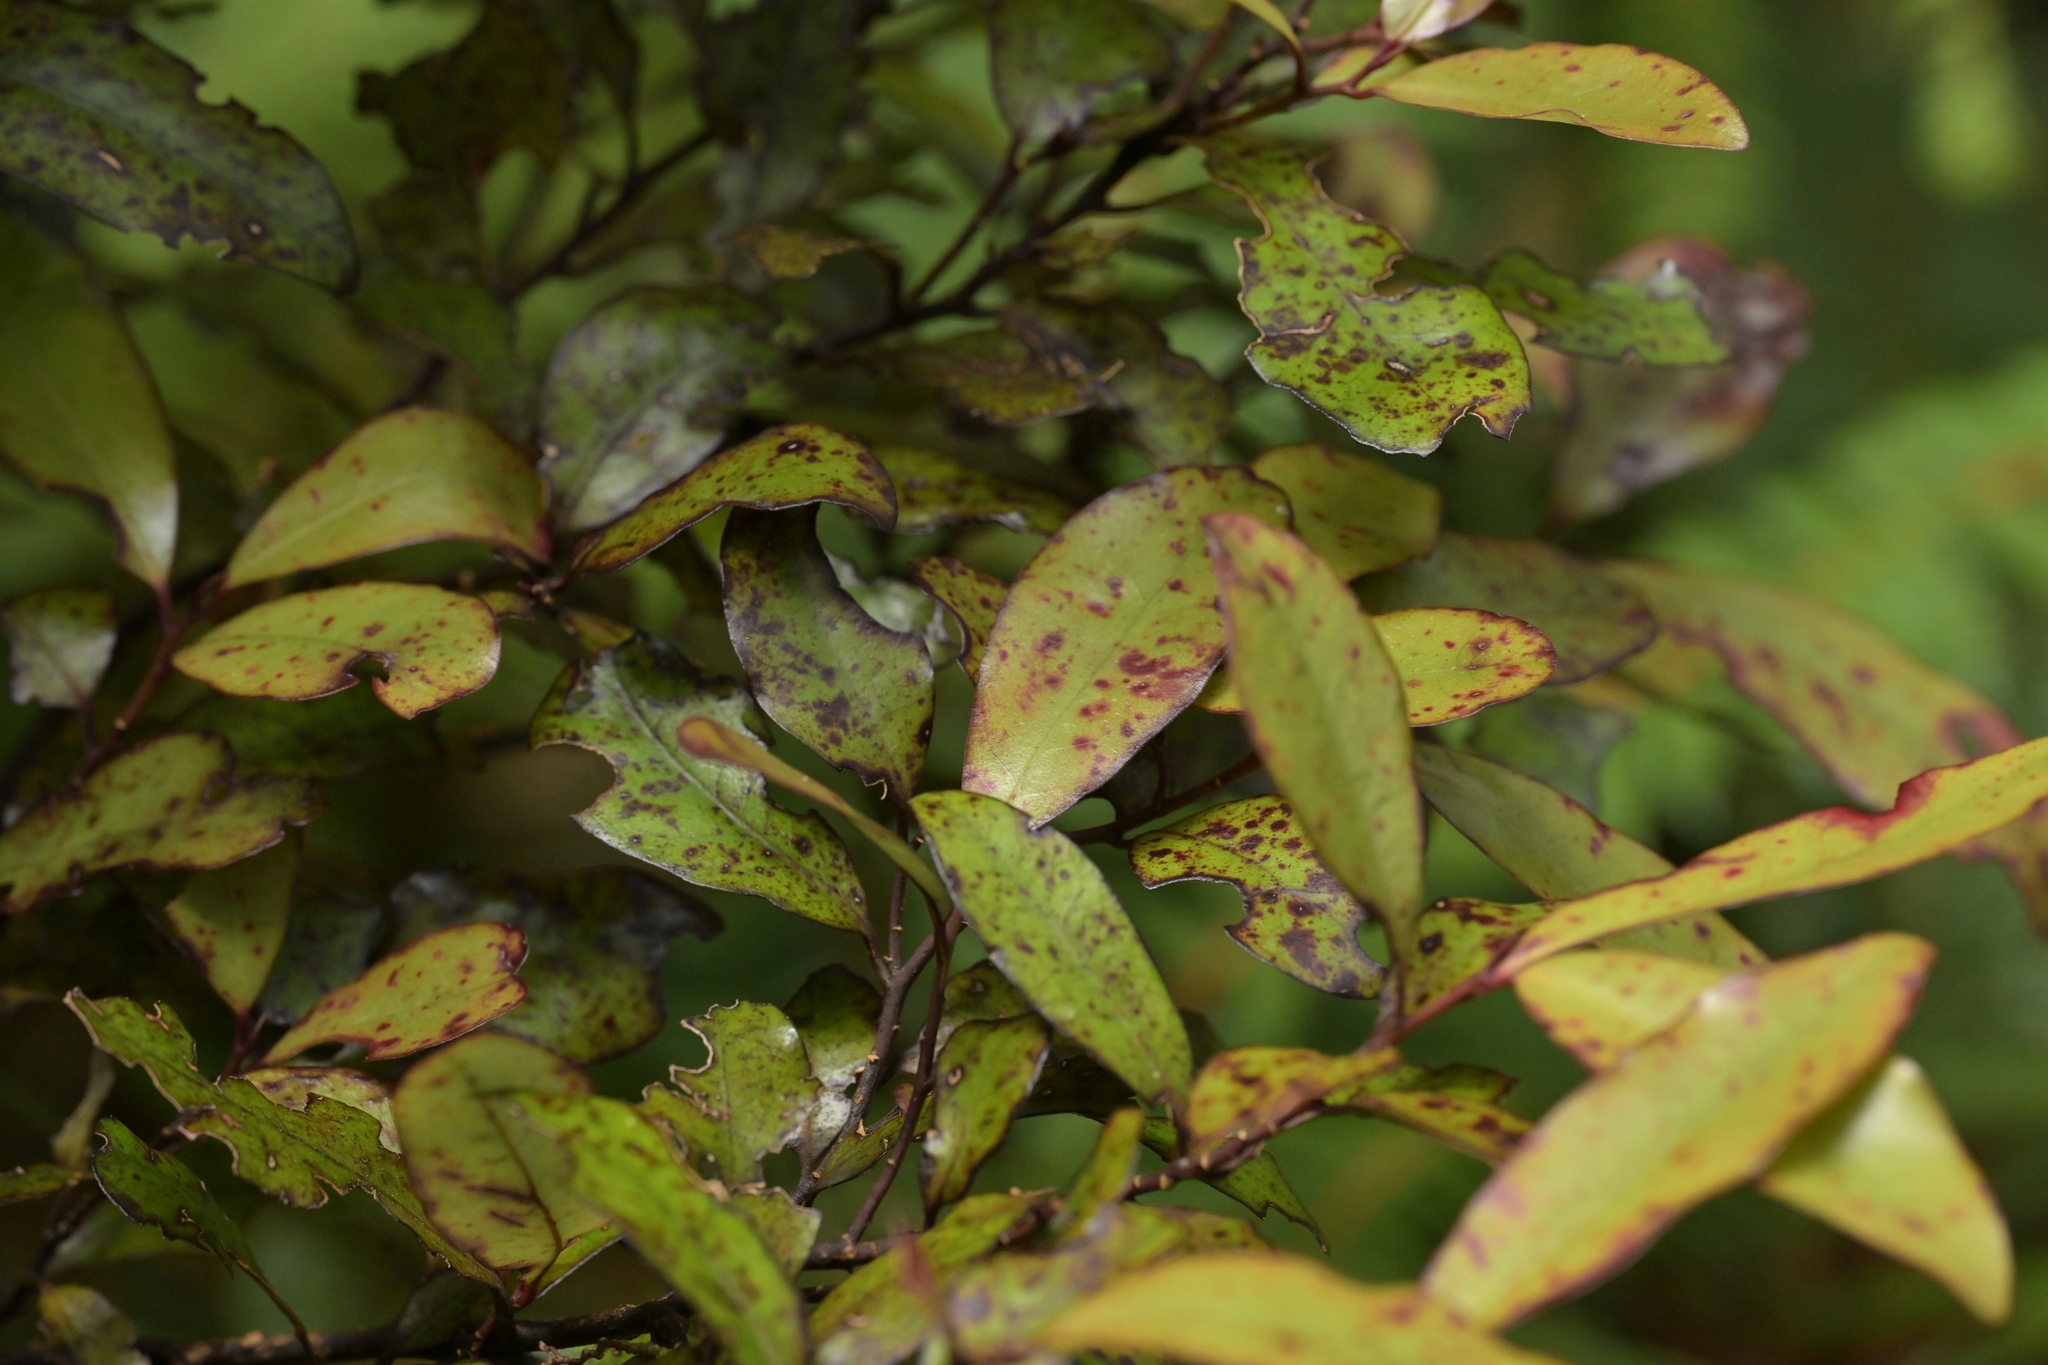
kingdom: Plantae
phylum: Tracheophyta
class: Magnoliopsida
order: Canellales
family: Winteraceae
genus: Pseudowintera
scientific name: Pseudowintera colorata
